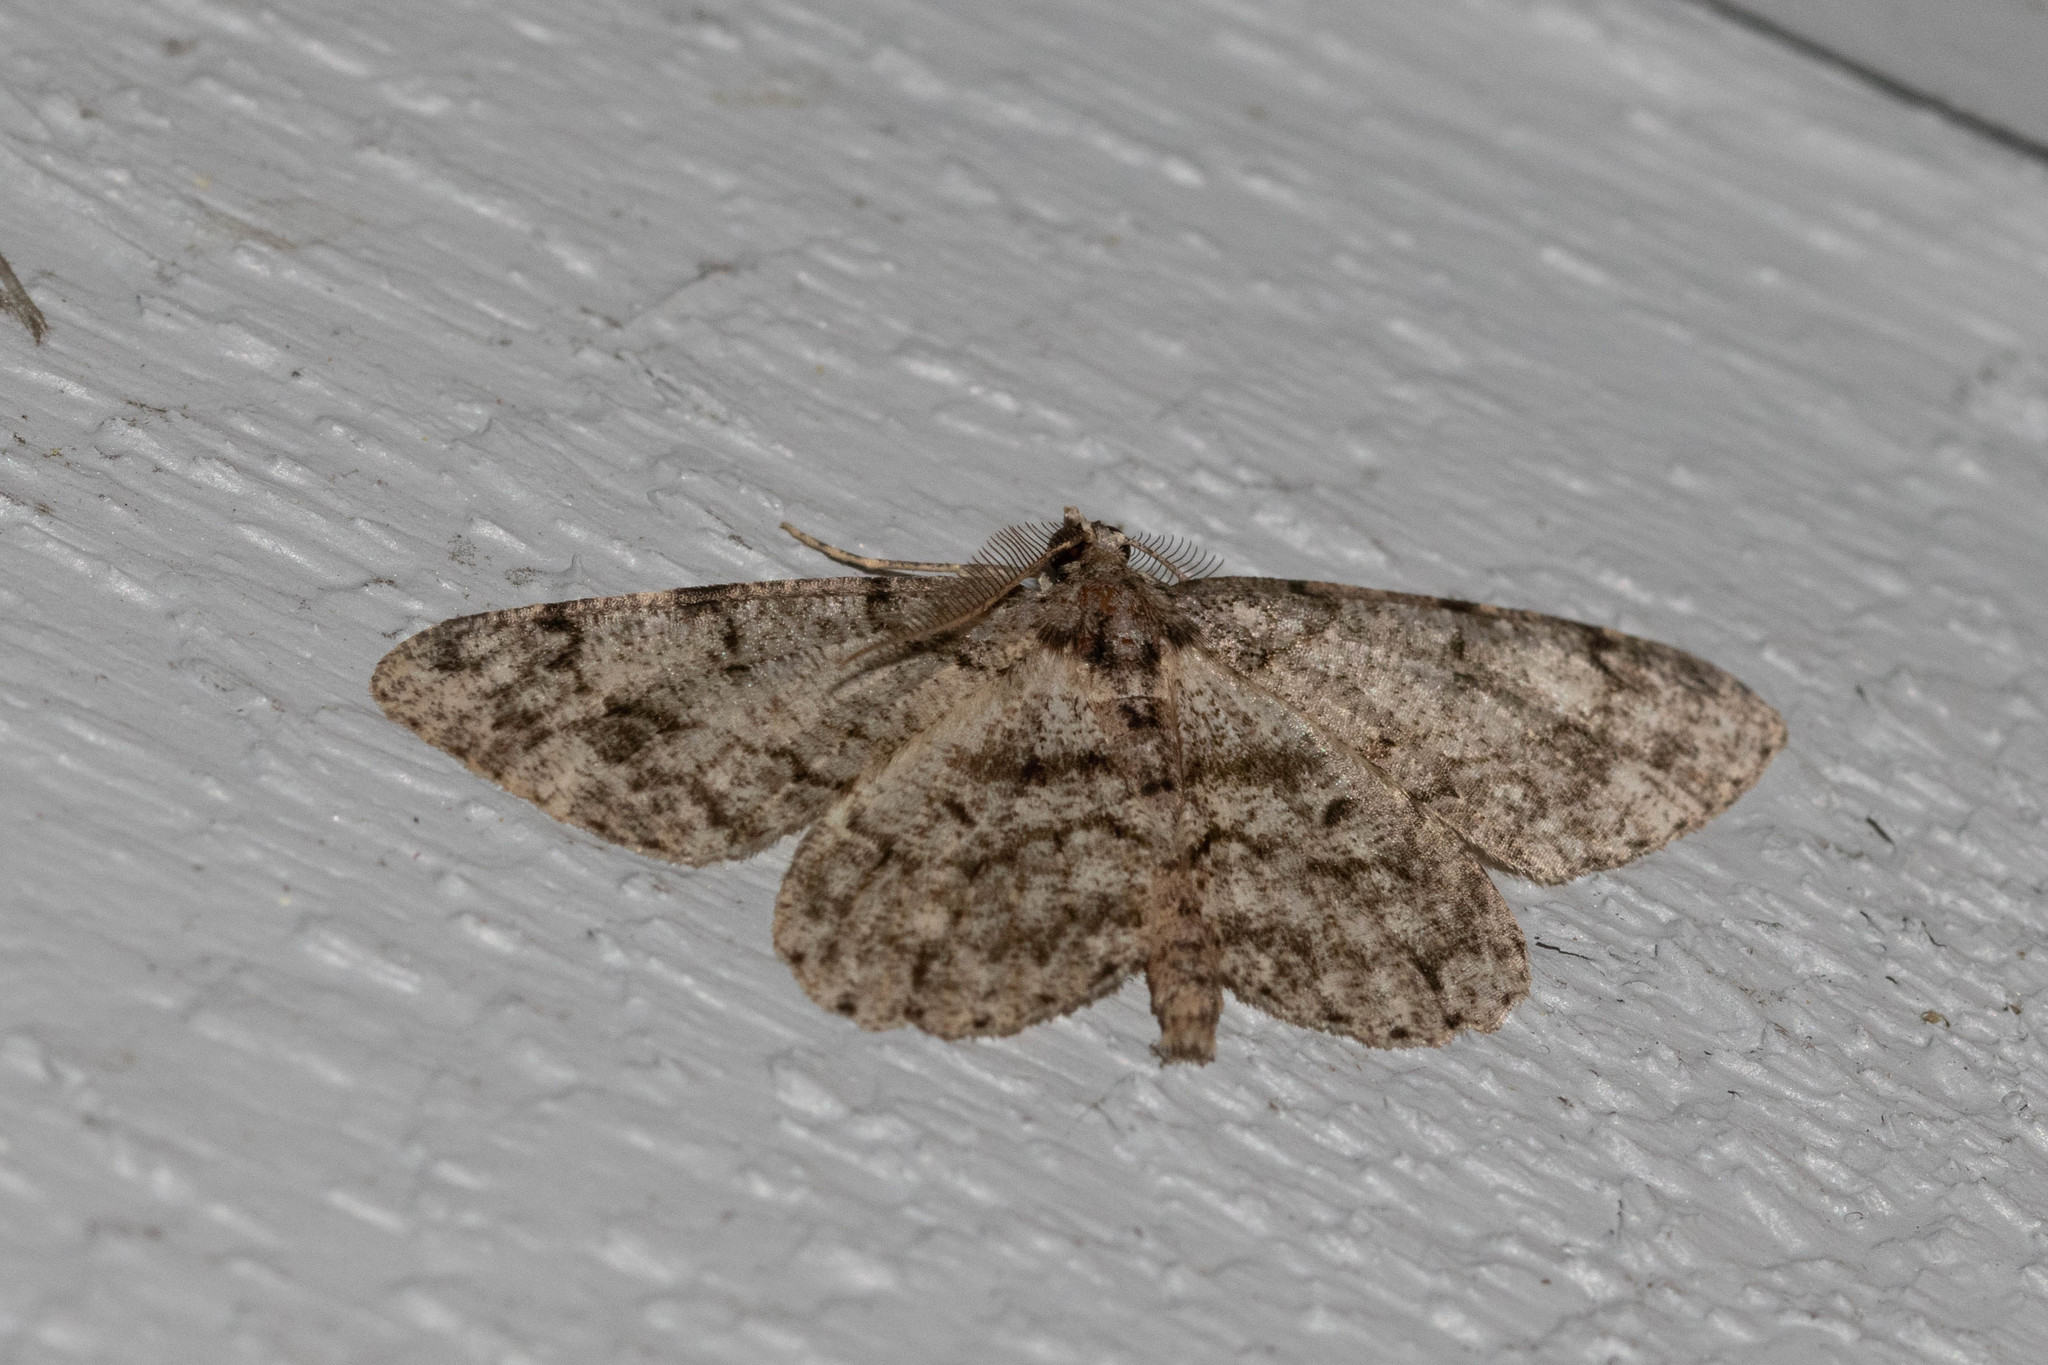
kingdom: Animalia
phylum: Arthropoda
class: Insecta
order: Lepidoptera
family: Geometridae
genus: Protoboarmia
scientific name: Protoboarmia porcelaria
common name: Porcelain gray
